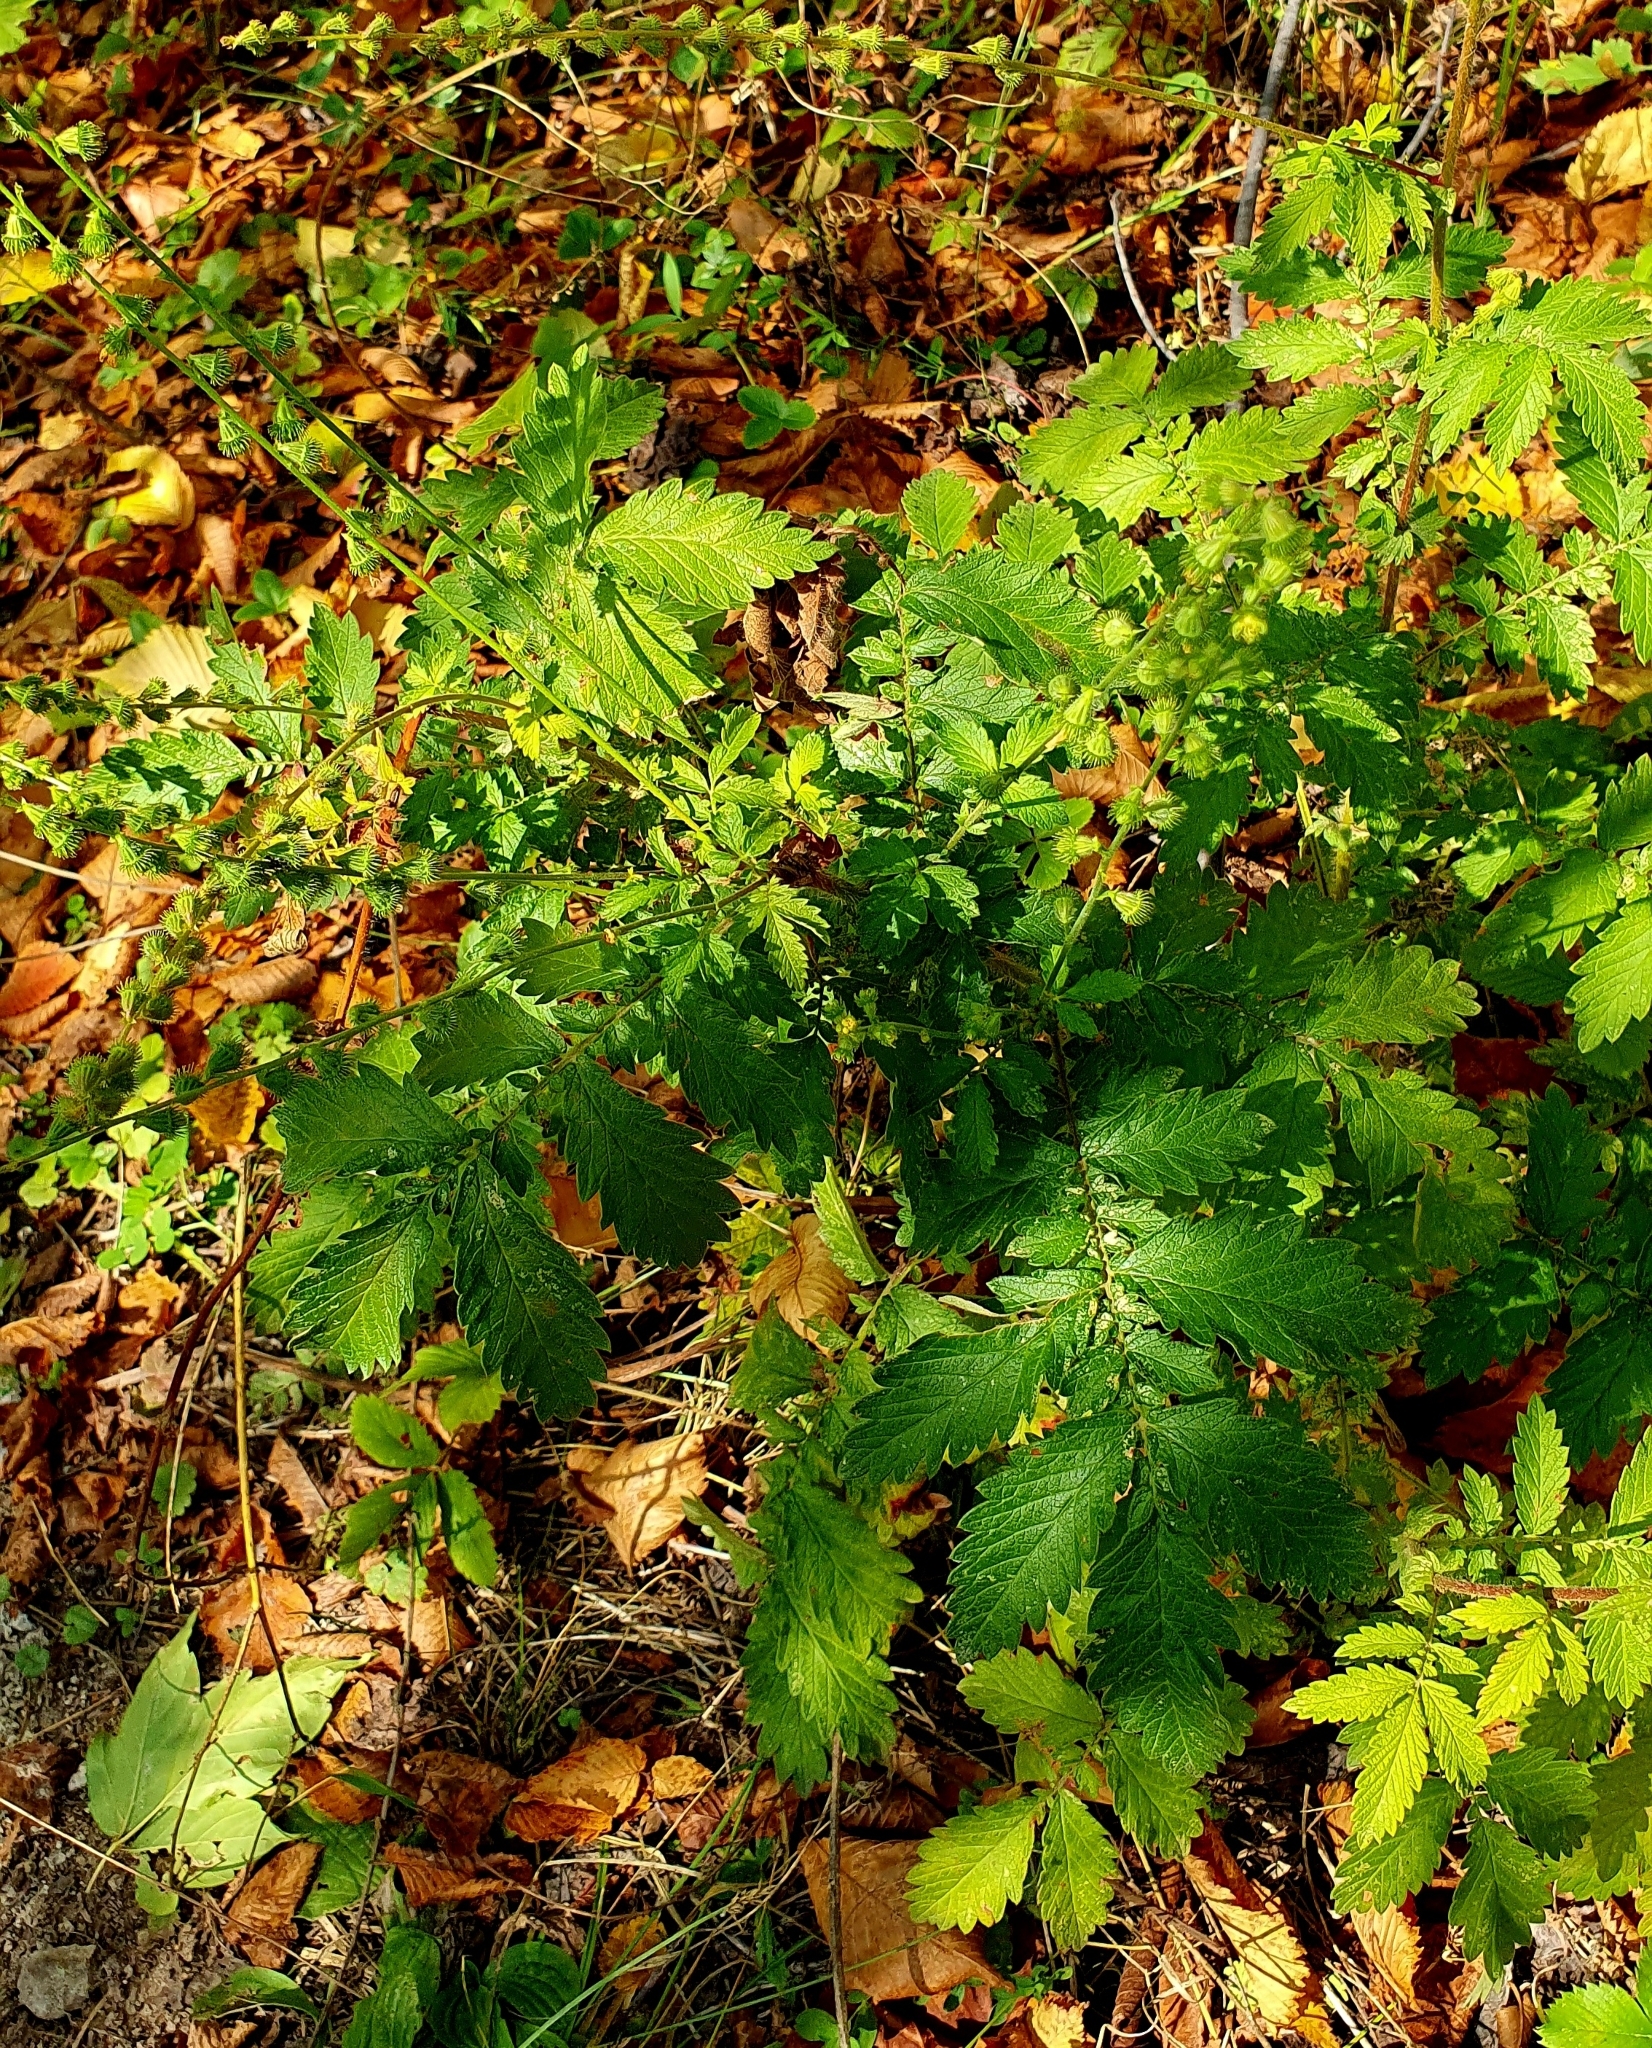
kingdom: Plantae
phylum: Tracheophyta
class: Magnoliopsida
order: Rosales
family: Rosaceae
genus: Agrimonia
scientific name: Agrimonia eupatoria
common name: Agrimony
